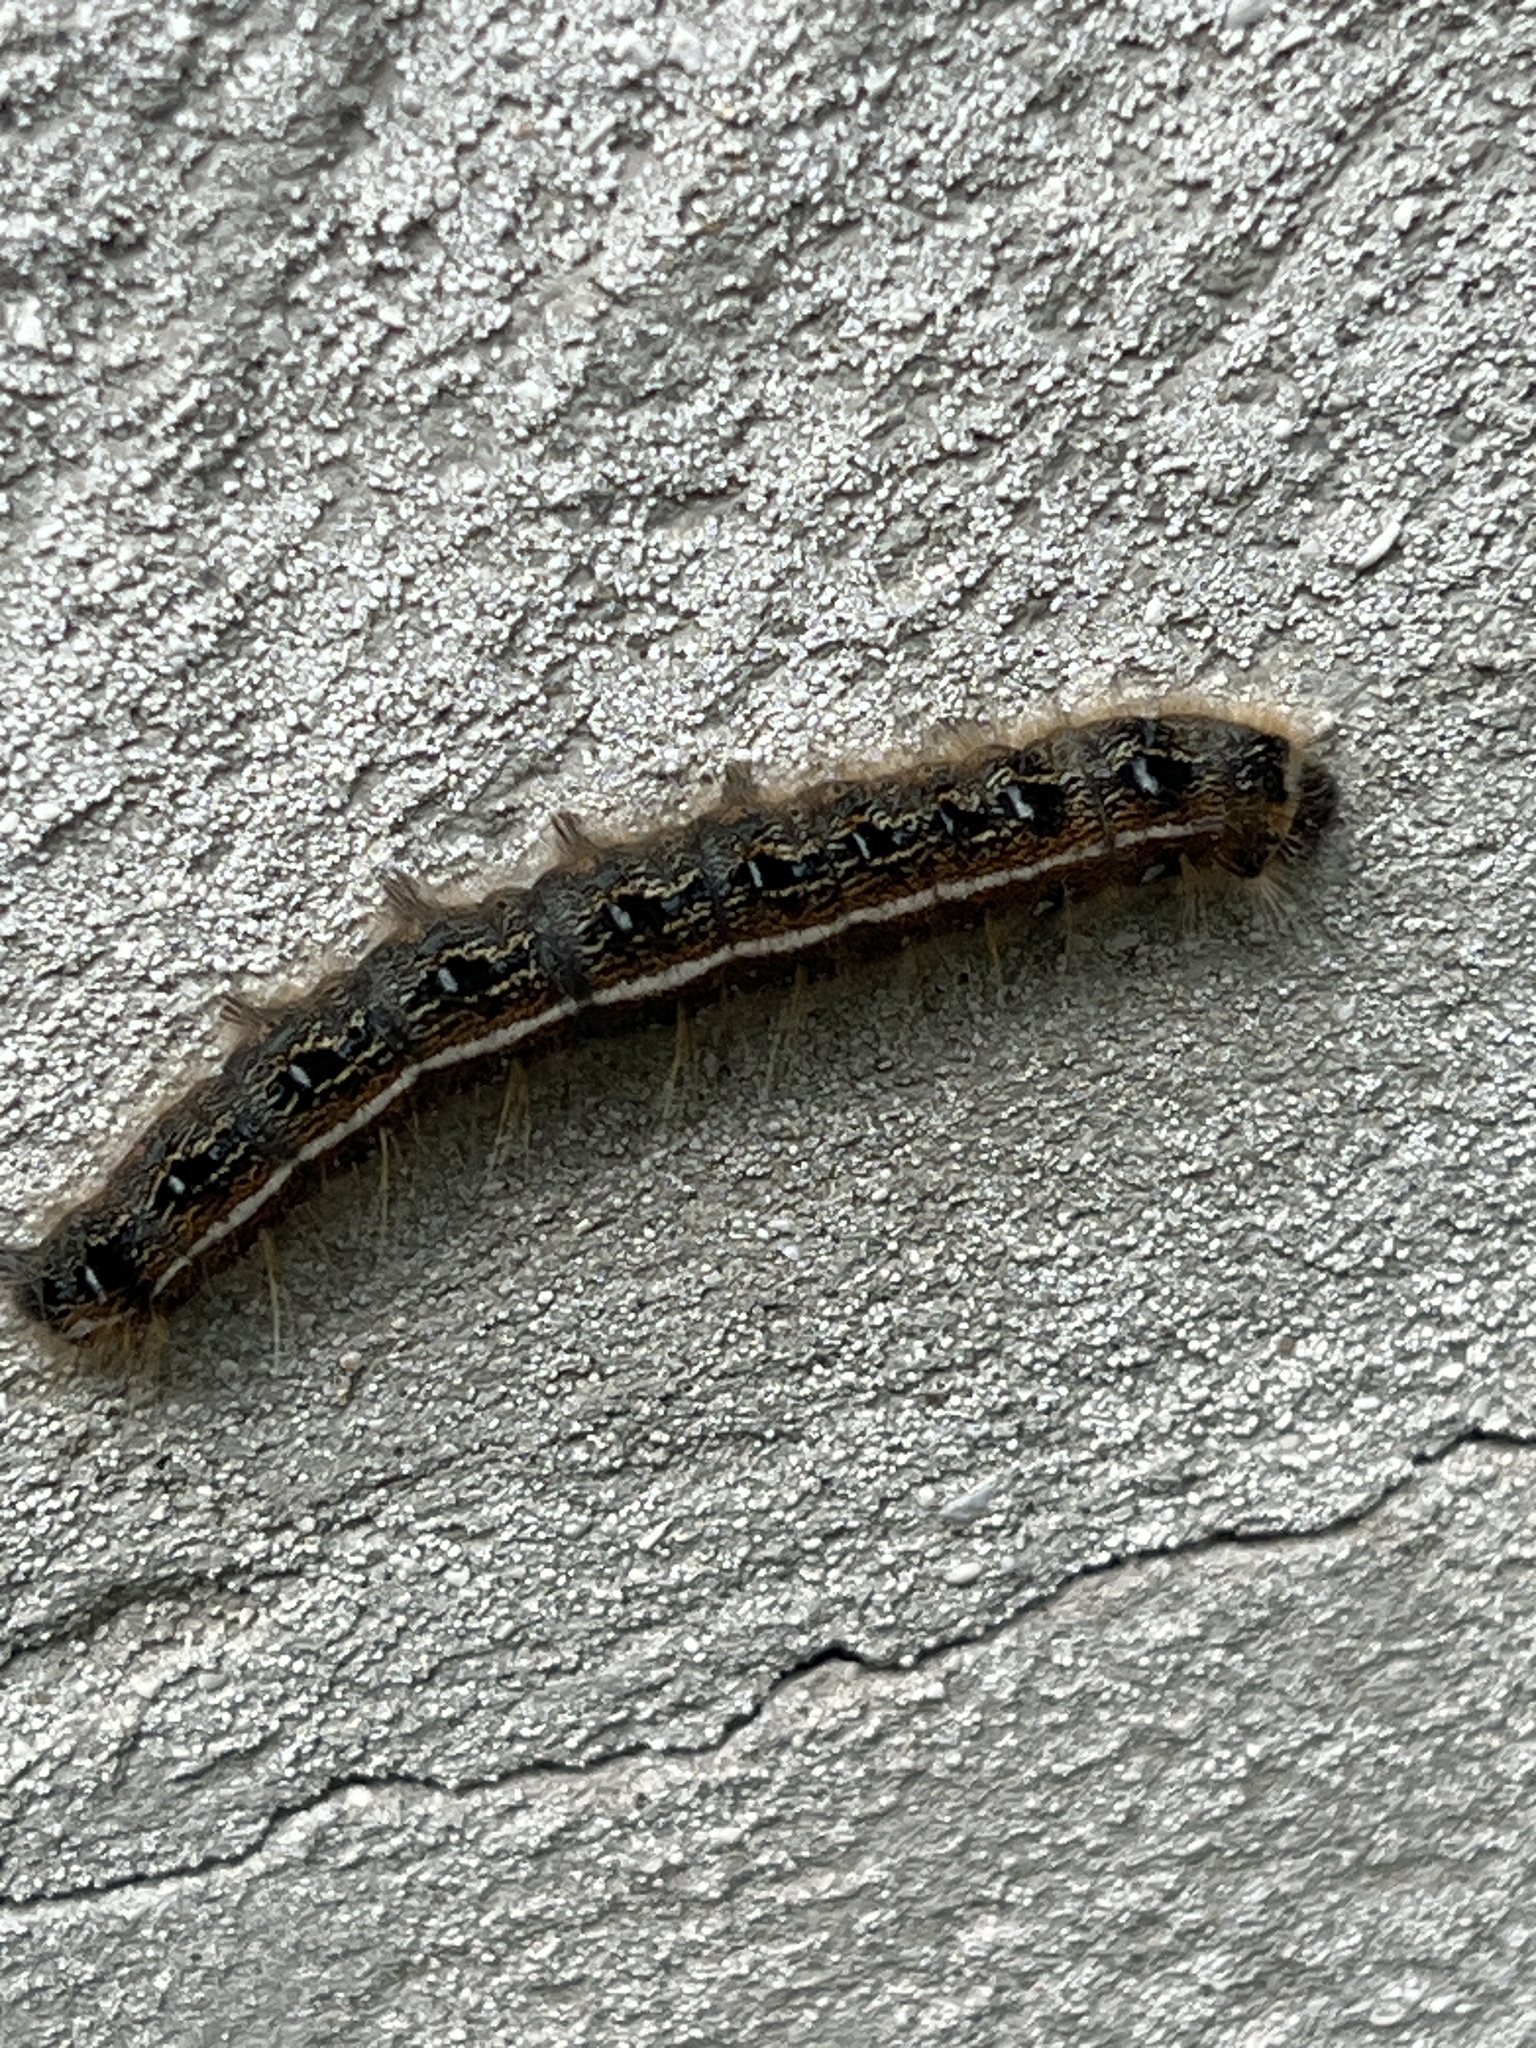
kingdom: Animalia
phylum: Arthropoda
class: Insecta
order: Lepidoptera
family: Lasiocampidae
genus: Malacosoma
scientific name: Malacosoma americana
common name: Eastern tent caterpillar moth
